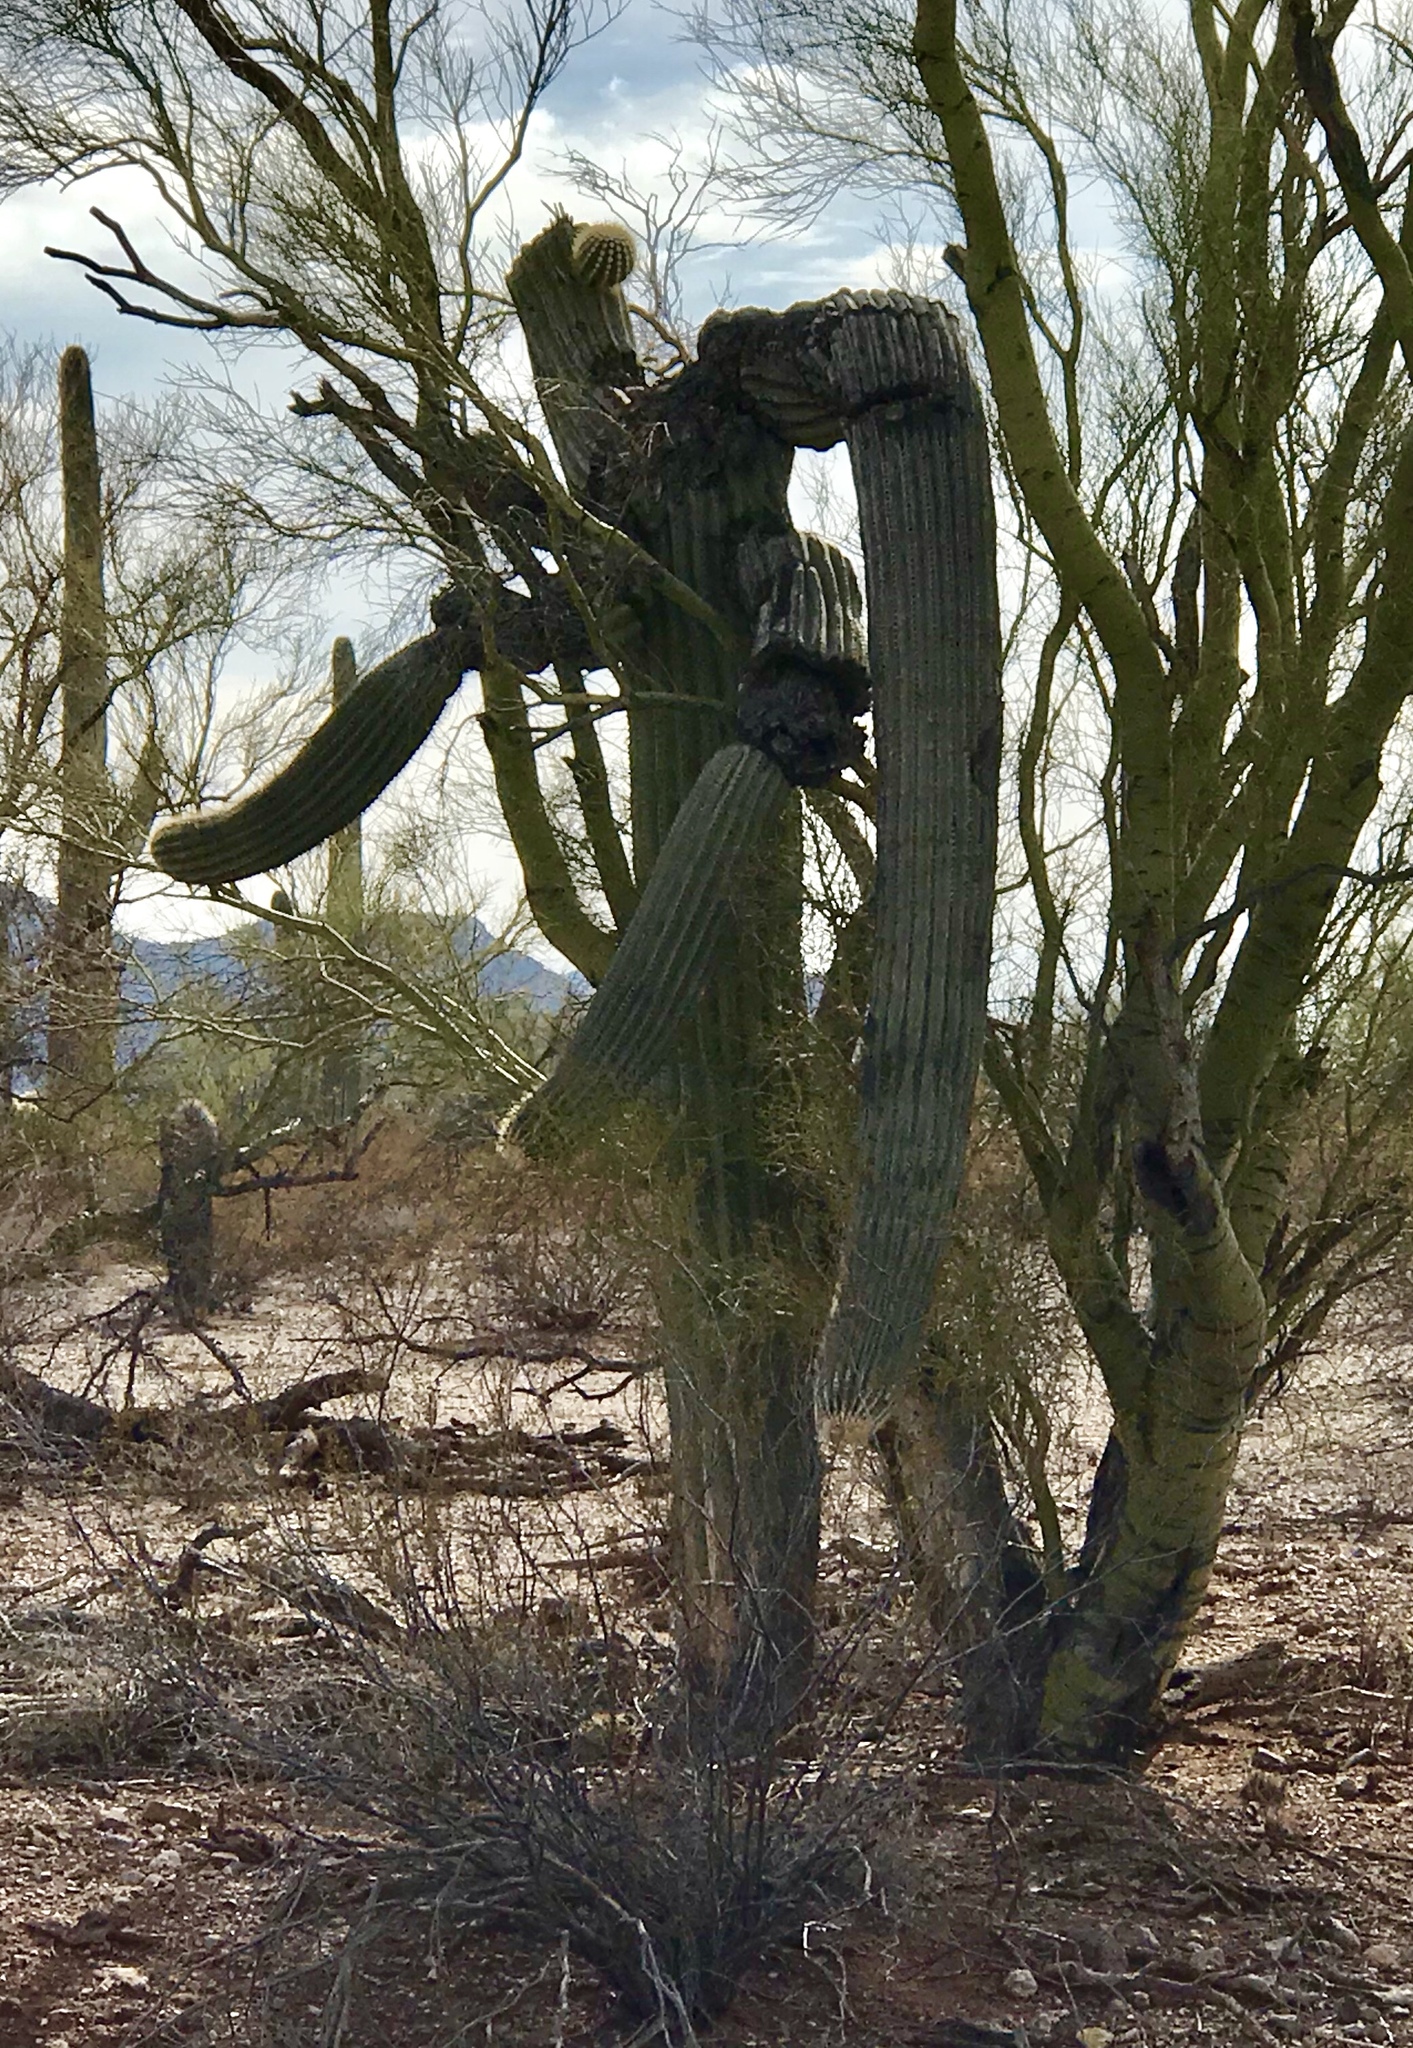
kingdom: Plantae
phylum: Tracheophyta
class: Magnoliopsida
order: Caryophyllales
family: Cactaceae
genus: Carnegiea
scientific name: Carnegiea gigantea
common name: Saguaro
